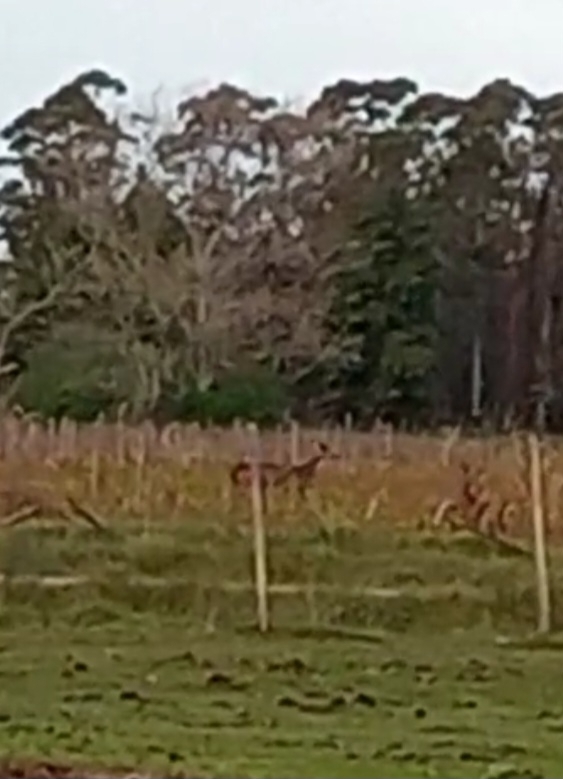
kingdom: Animalia
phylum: Chordata
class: Mammalia
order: Artiodactyla
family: Cervidae
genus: Axis
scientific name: Axis axis
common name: Chital
